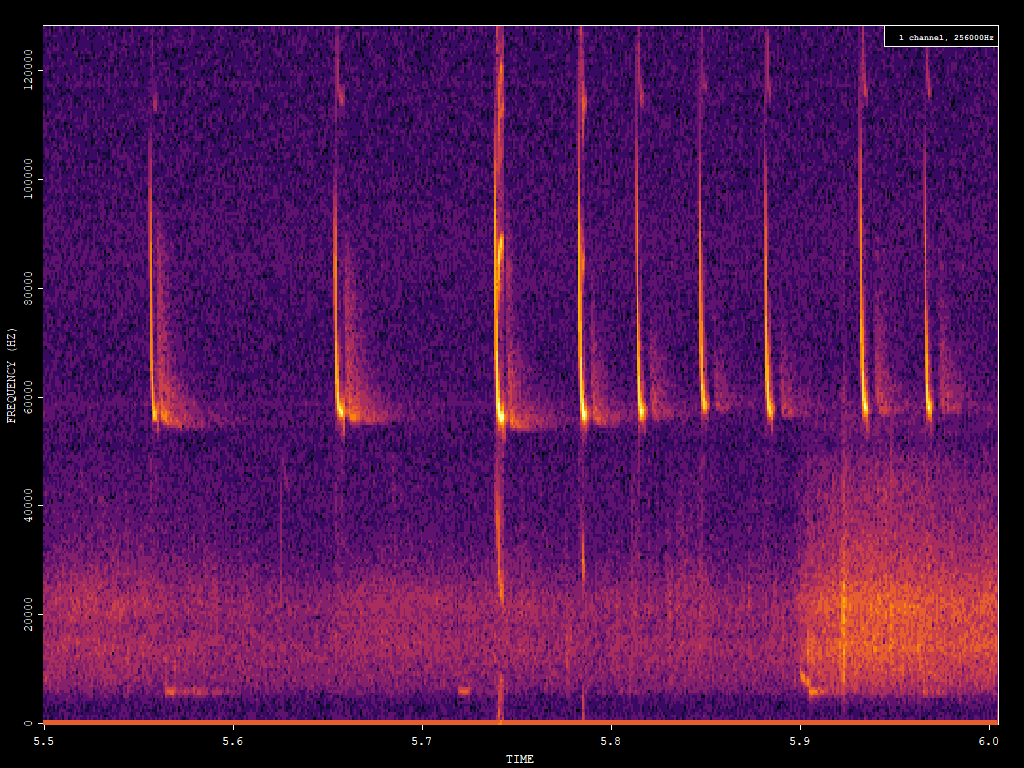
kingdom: Animalia
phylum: Chordata
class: Mammalia
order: Chiroptera
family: Vespertilionidae
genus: Pipistrellus
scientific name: Pipistrellus pygmaeus
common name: Soprano pipistrelle
